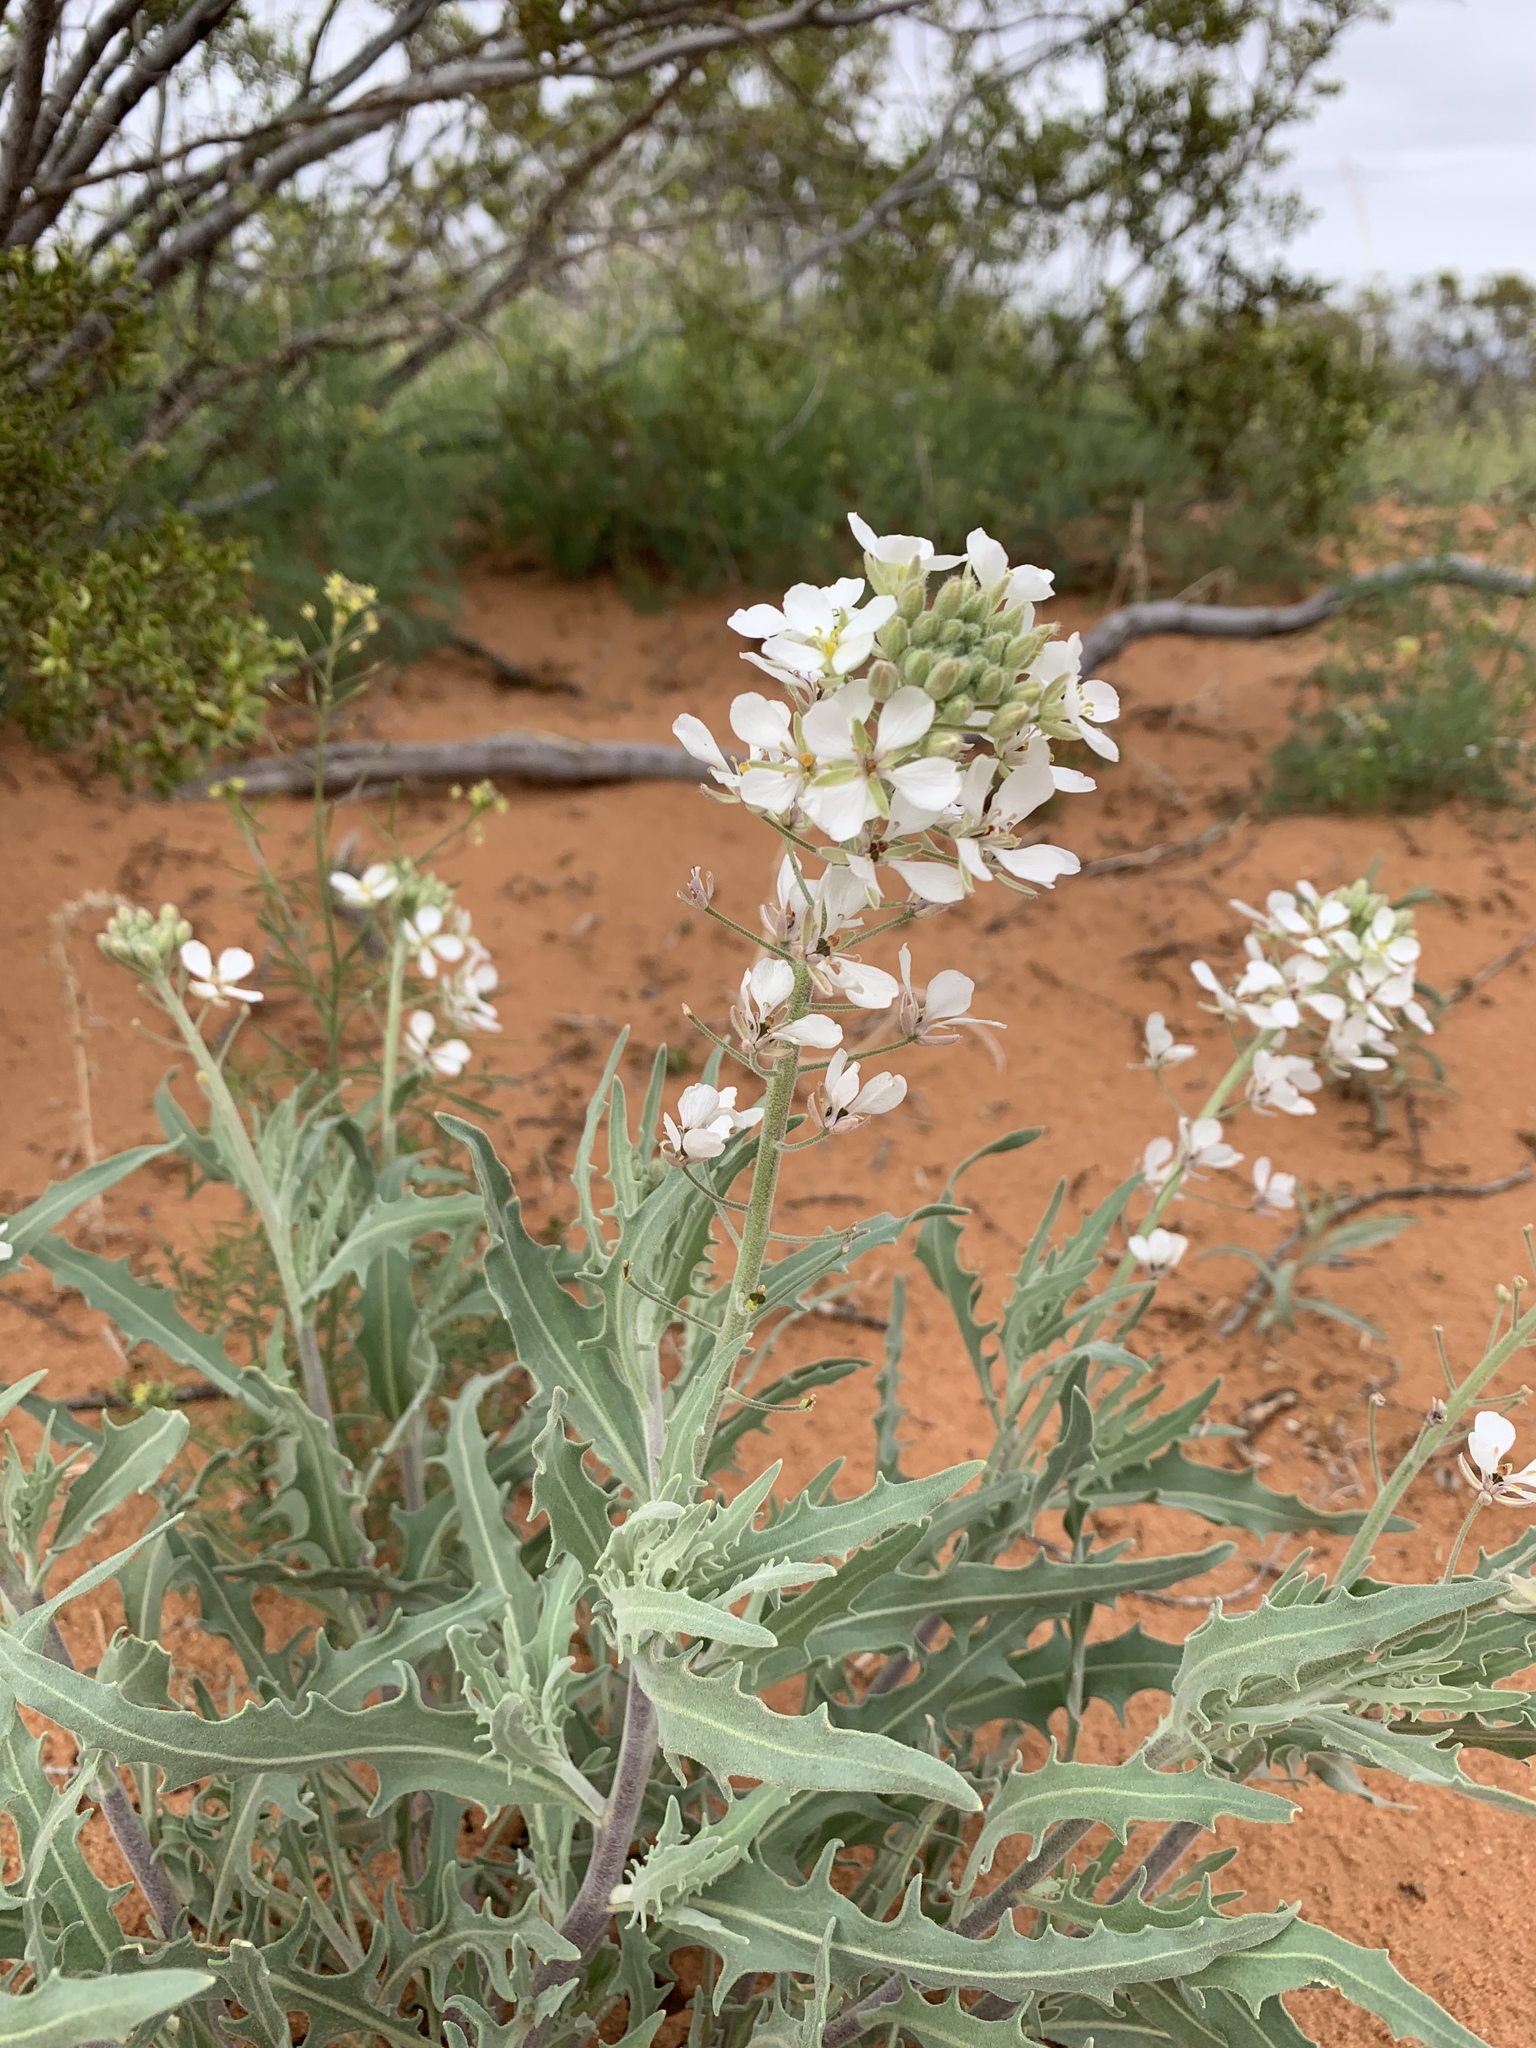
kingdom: Plantae
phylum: Tracheophyta
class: Magnoliopsida
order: Brassicales
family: Brassicaceae
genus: Dimorphocarpa
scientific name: Dimorphocarpa wislizenii
